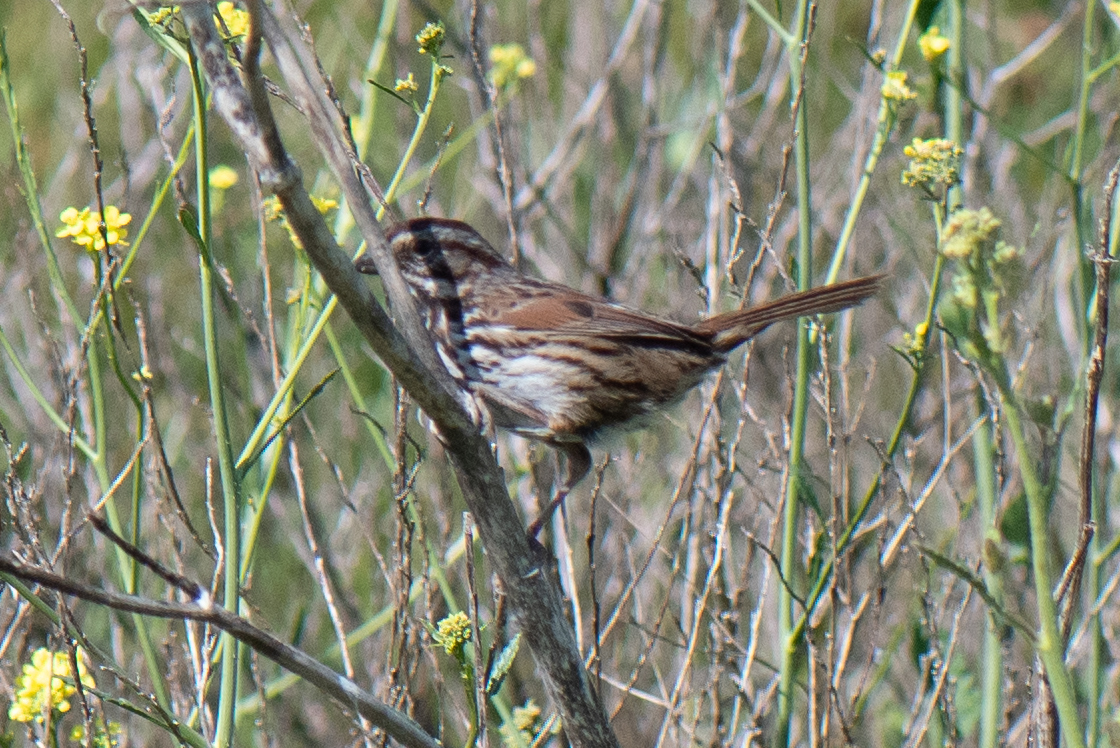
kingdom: Animalia
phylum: Chordata
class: Aves
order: Passeriformes
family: Passerellidae
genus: Melospiza
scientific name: Melospiza melodia
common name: Song sparrow
